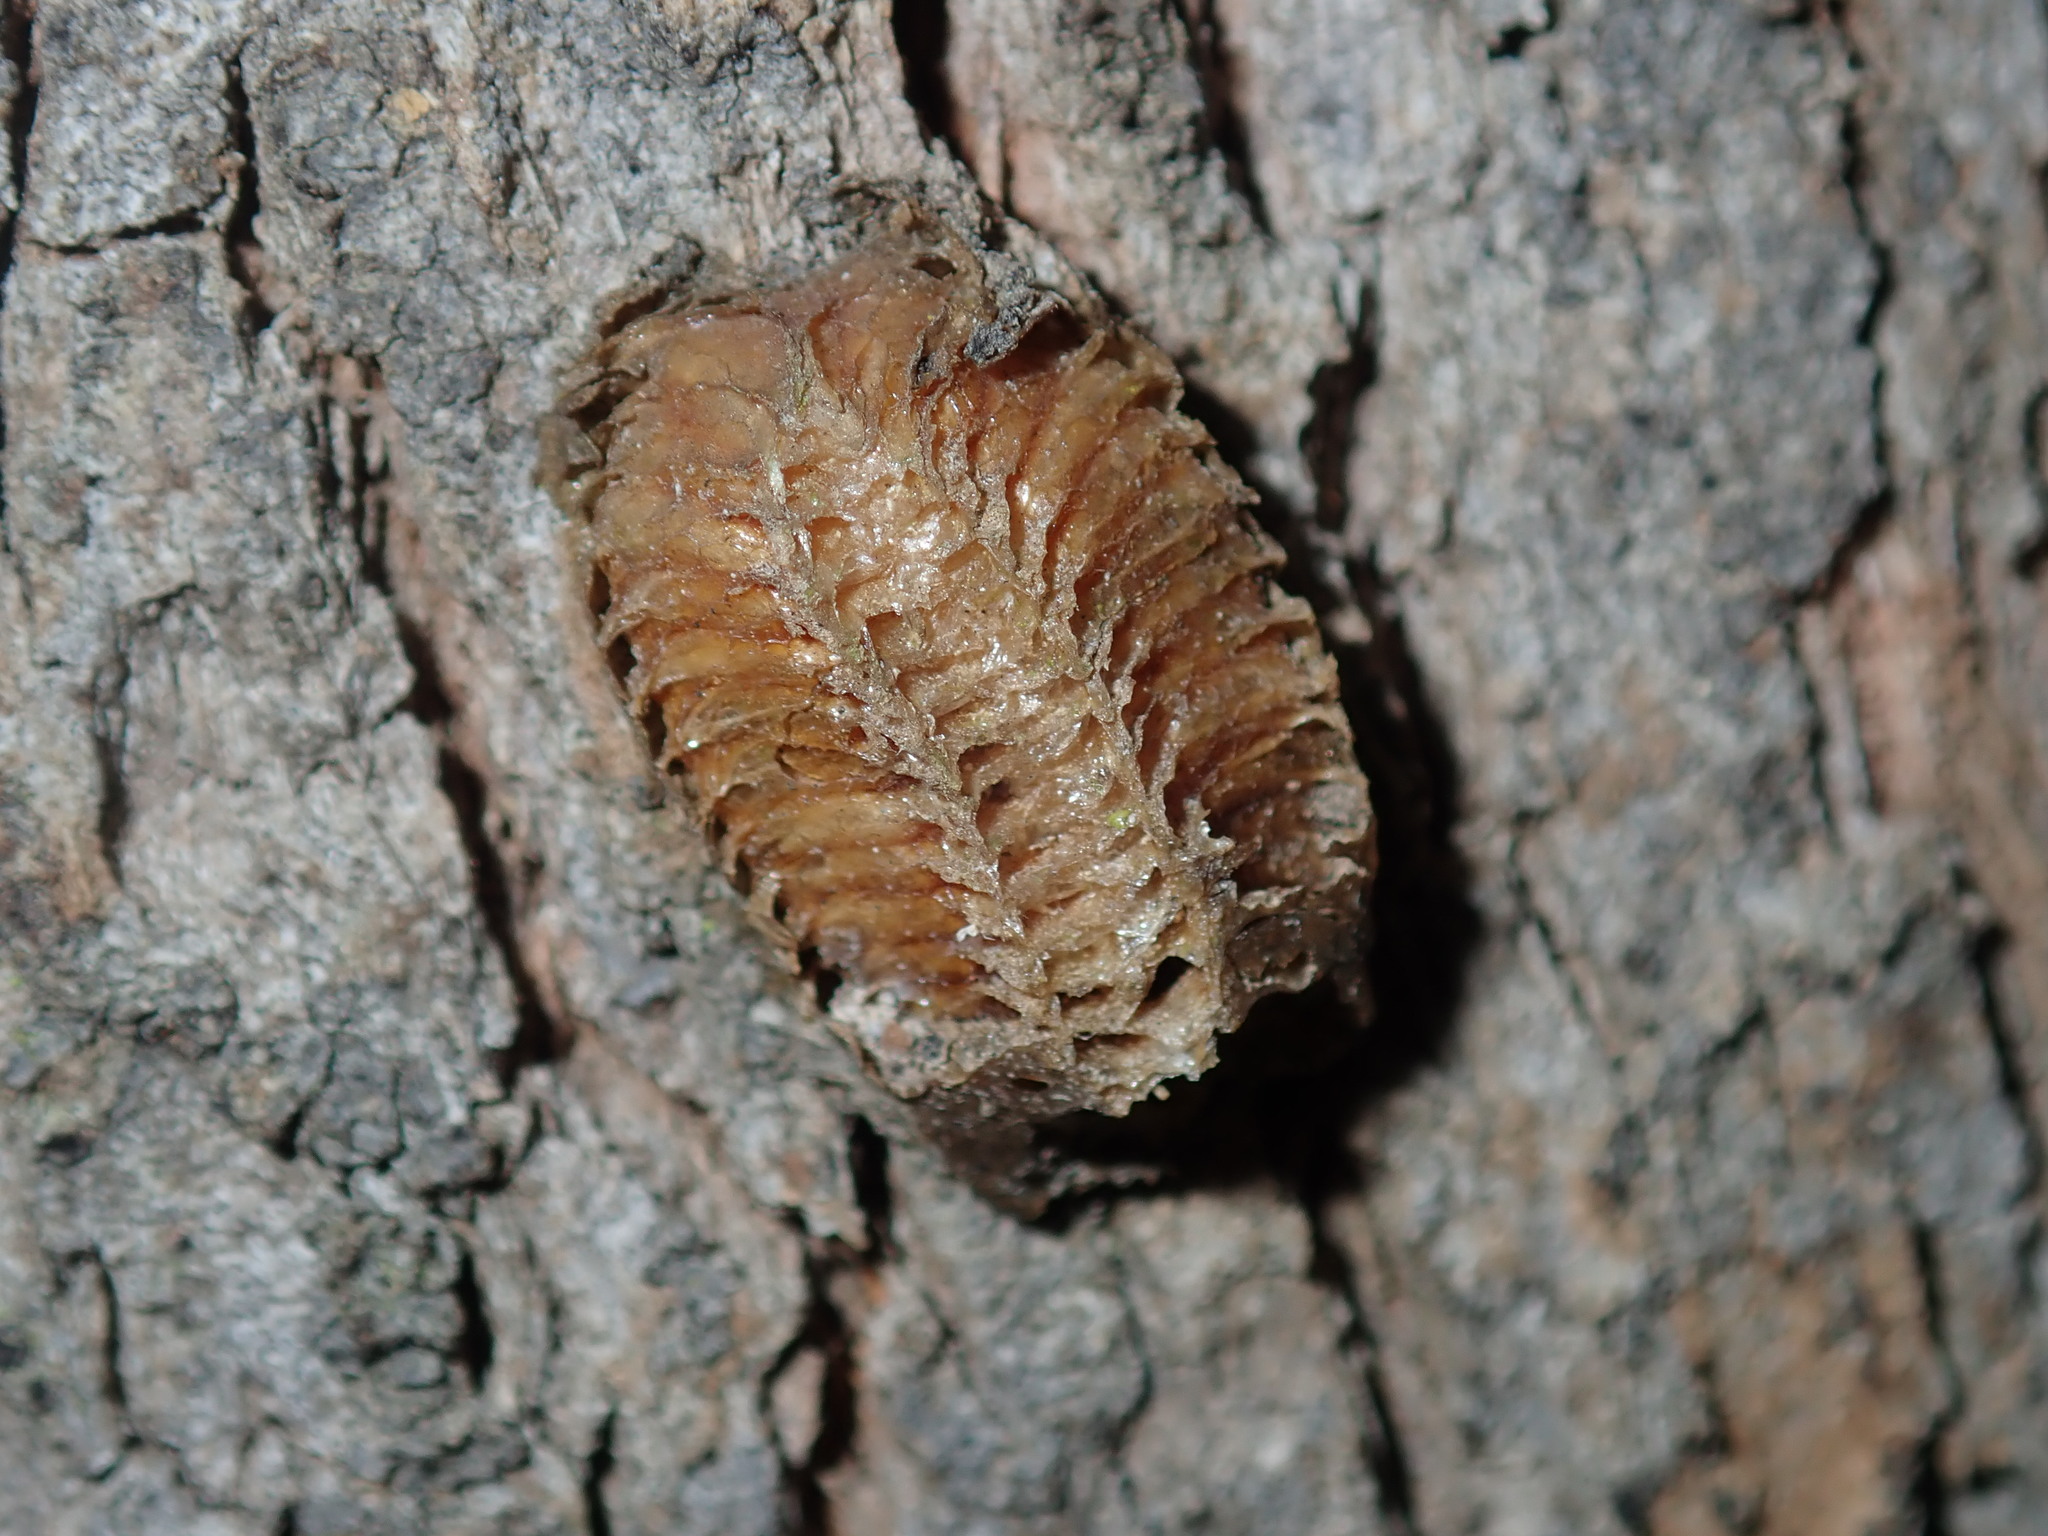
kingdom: Animalia
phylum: Arthropoda
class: Insecta
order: Mantodea
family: Mantidae
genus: Pseudomantis
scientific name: Pseudomantis albofimbriata
